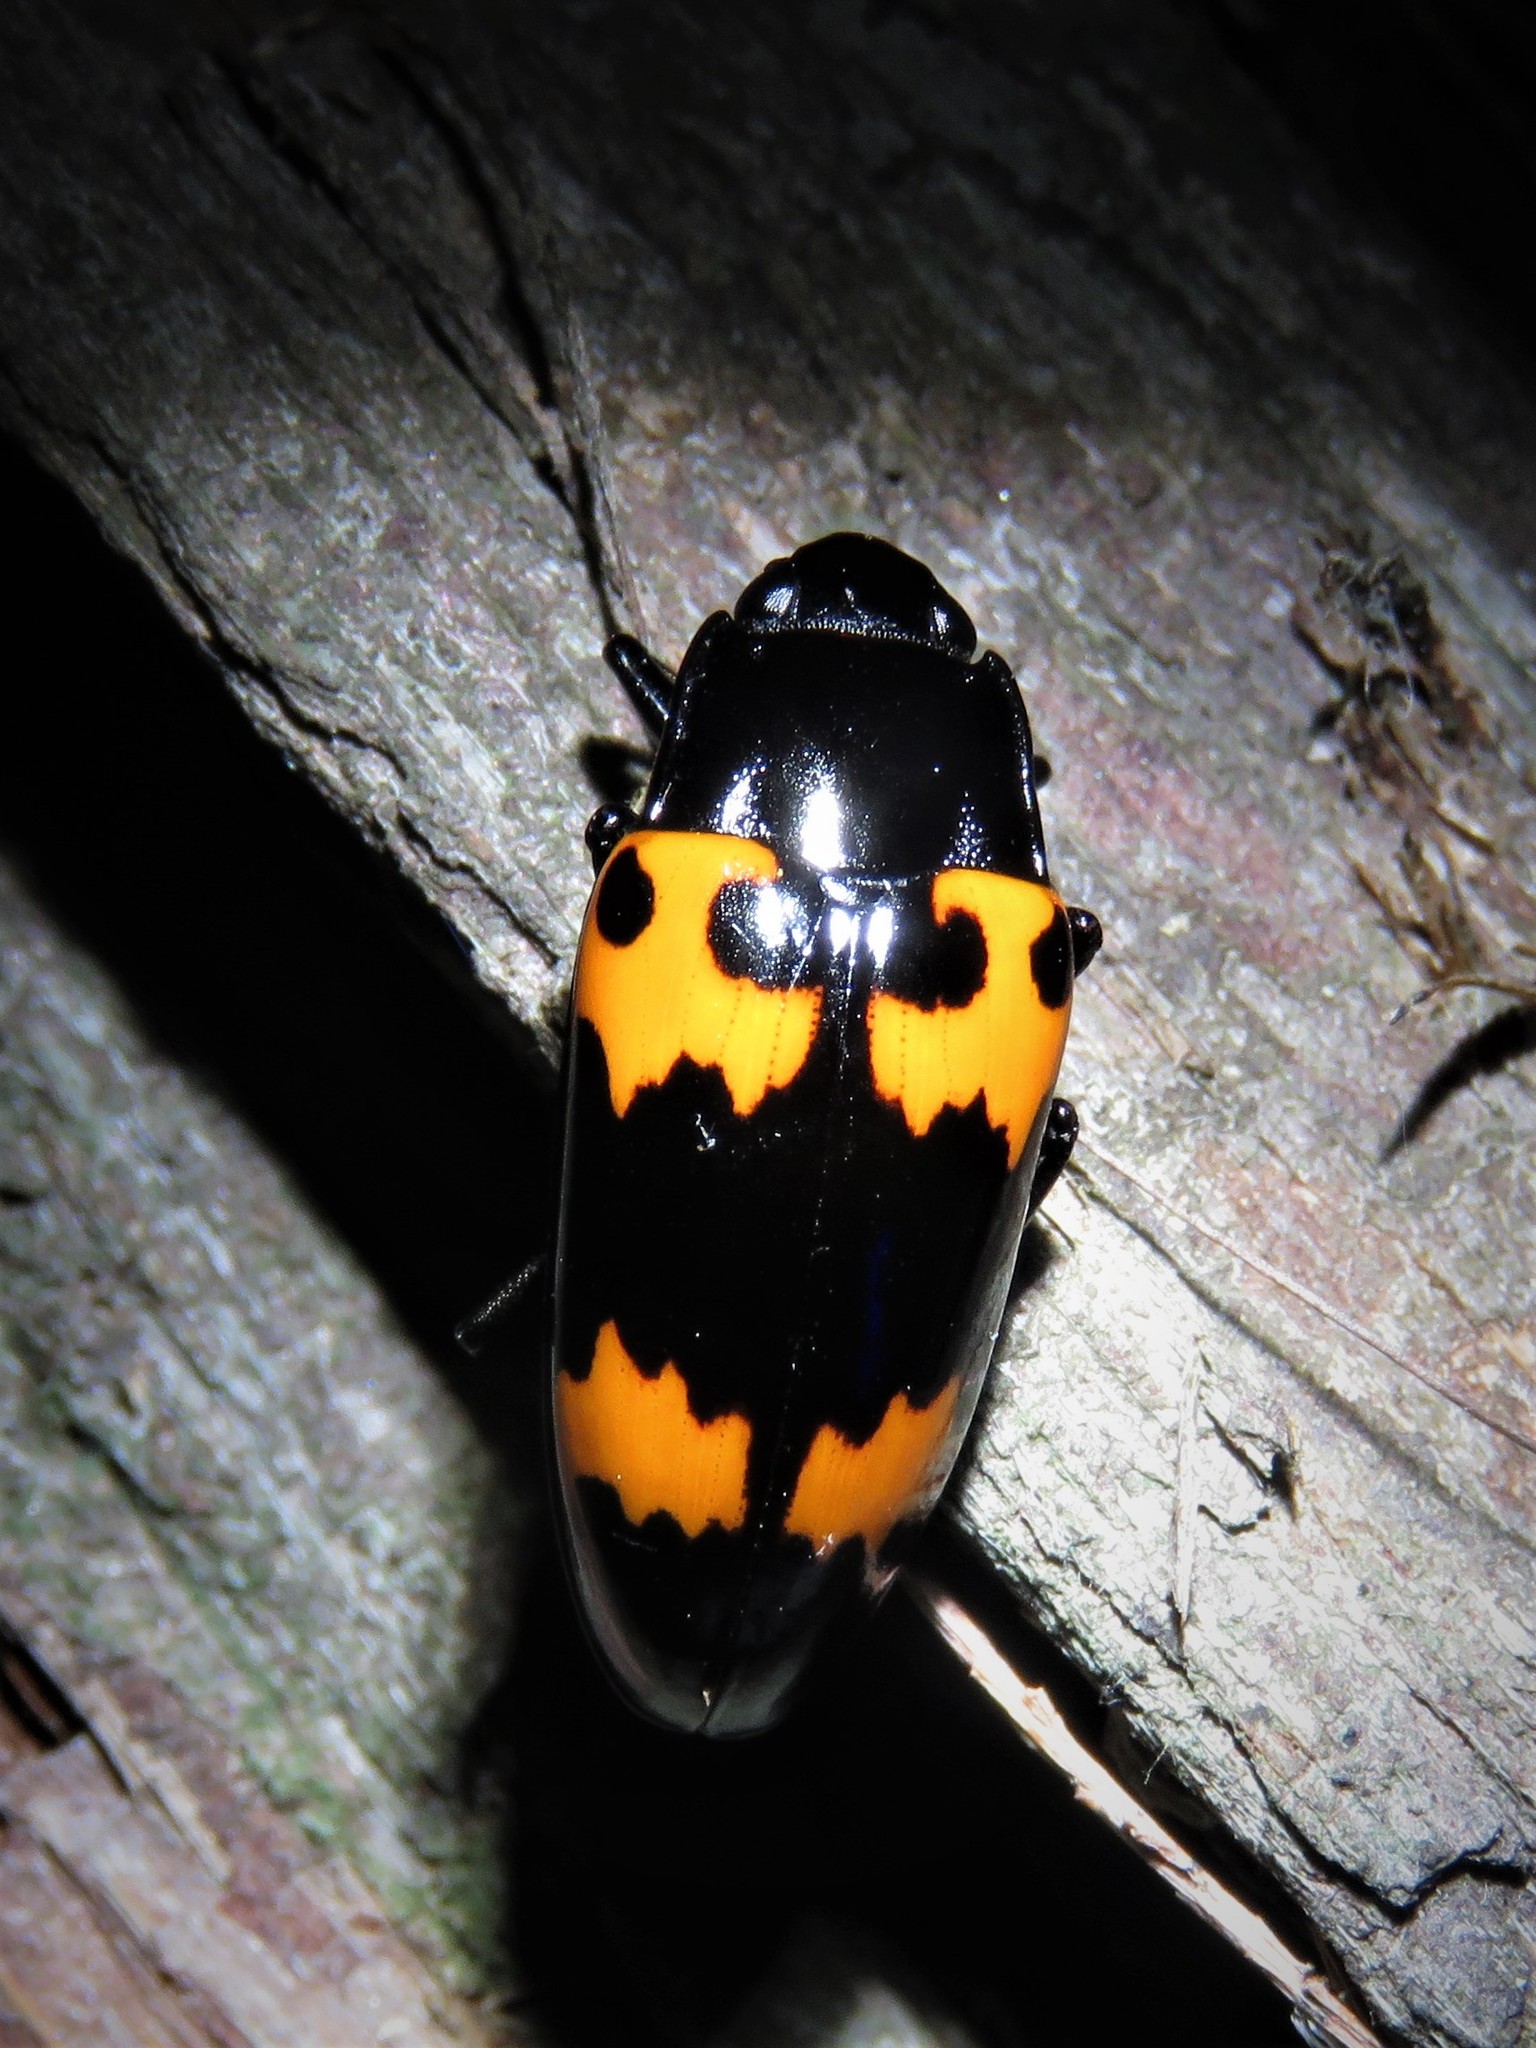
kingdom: Animalia
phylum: Arthropoda
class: Insecta
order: Coleoptera
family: Erotylidae
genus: Megalodacne
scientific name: Megalodacne heros
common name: Pleasing fungus beetle
